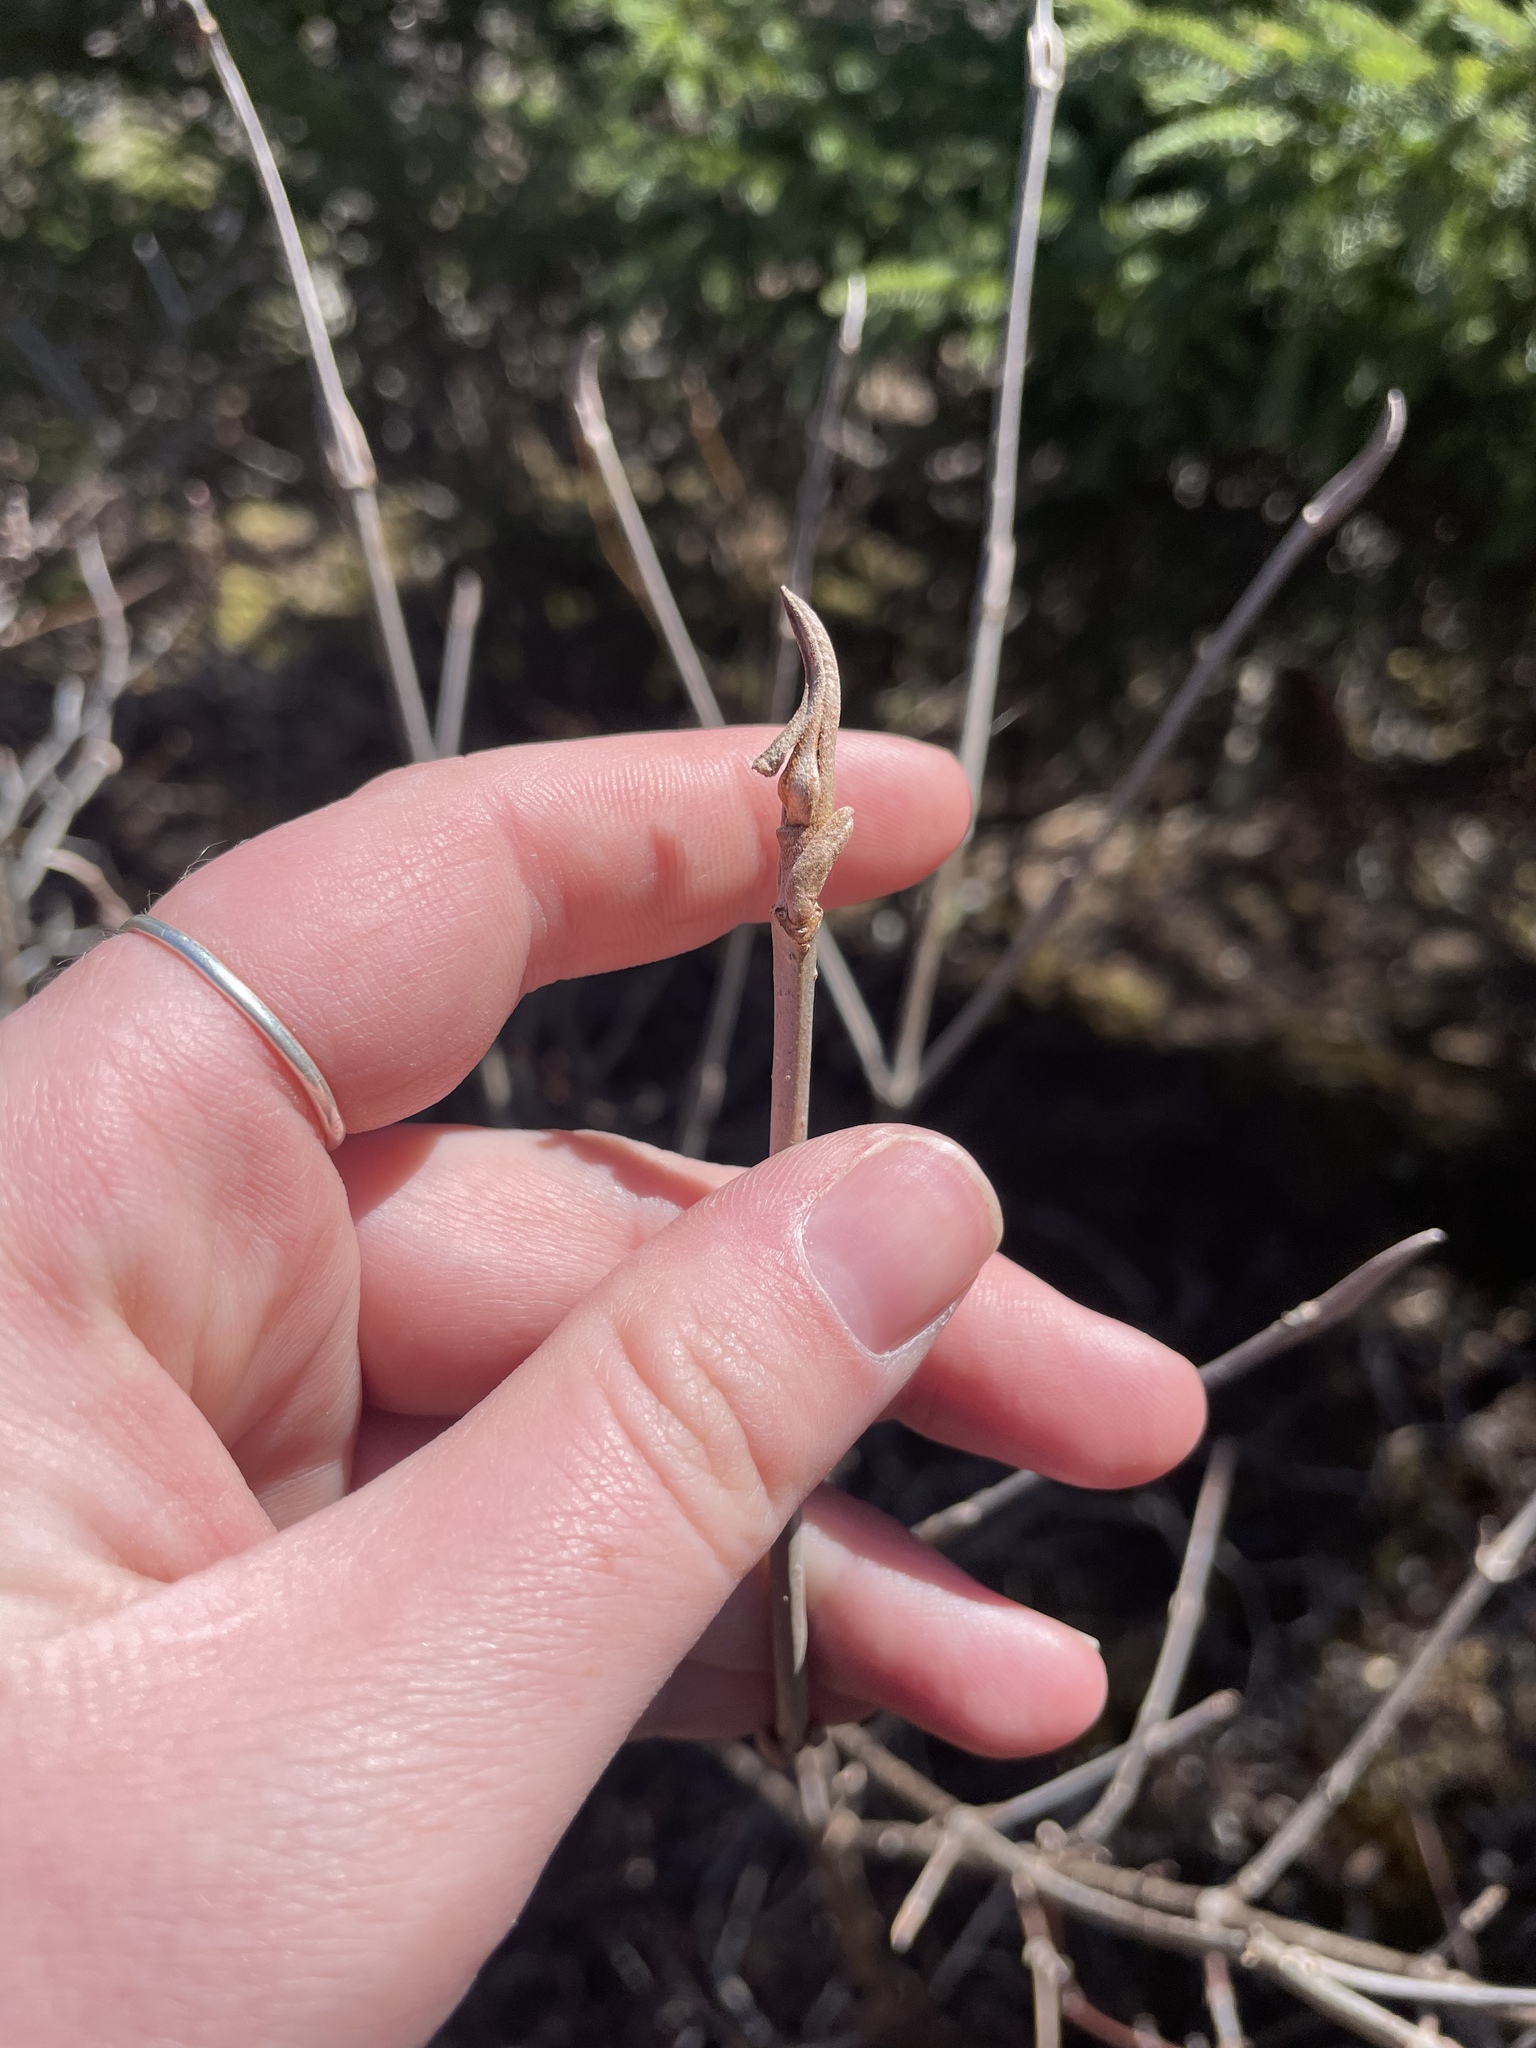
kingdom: Plantae
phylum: Tracheophyta
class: Magnoliopsida
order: Dipsacales
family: Viburnaceae
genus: Viburnum
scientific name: Viburnum cassinoides
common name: Swamp haw
